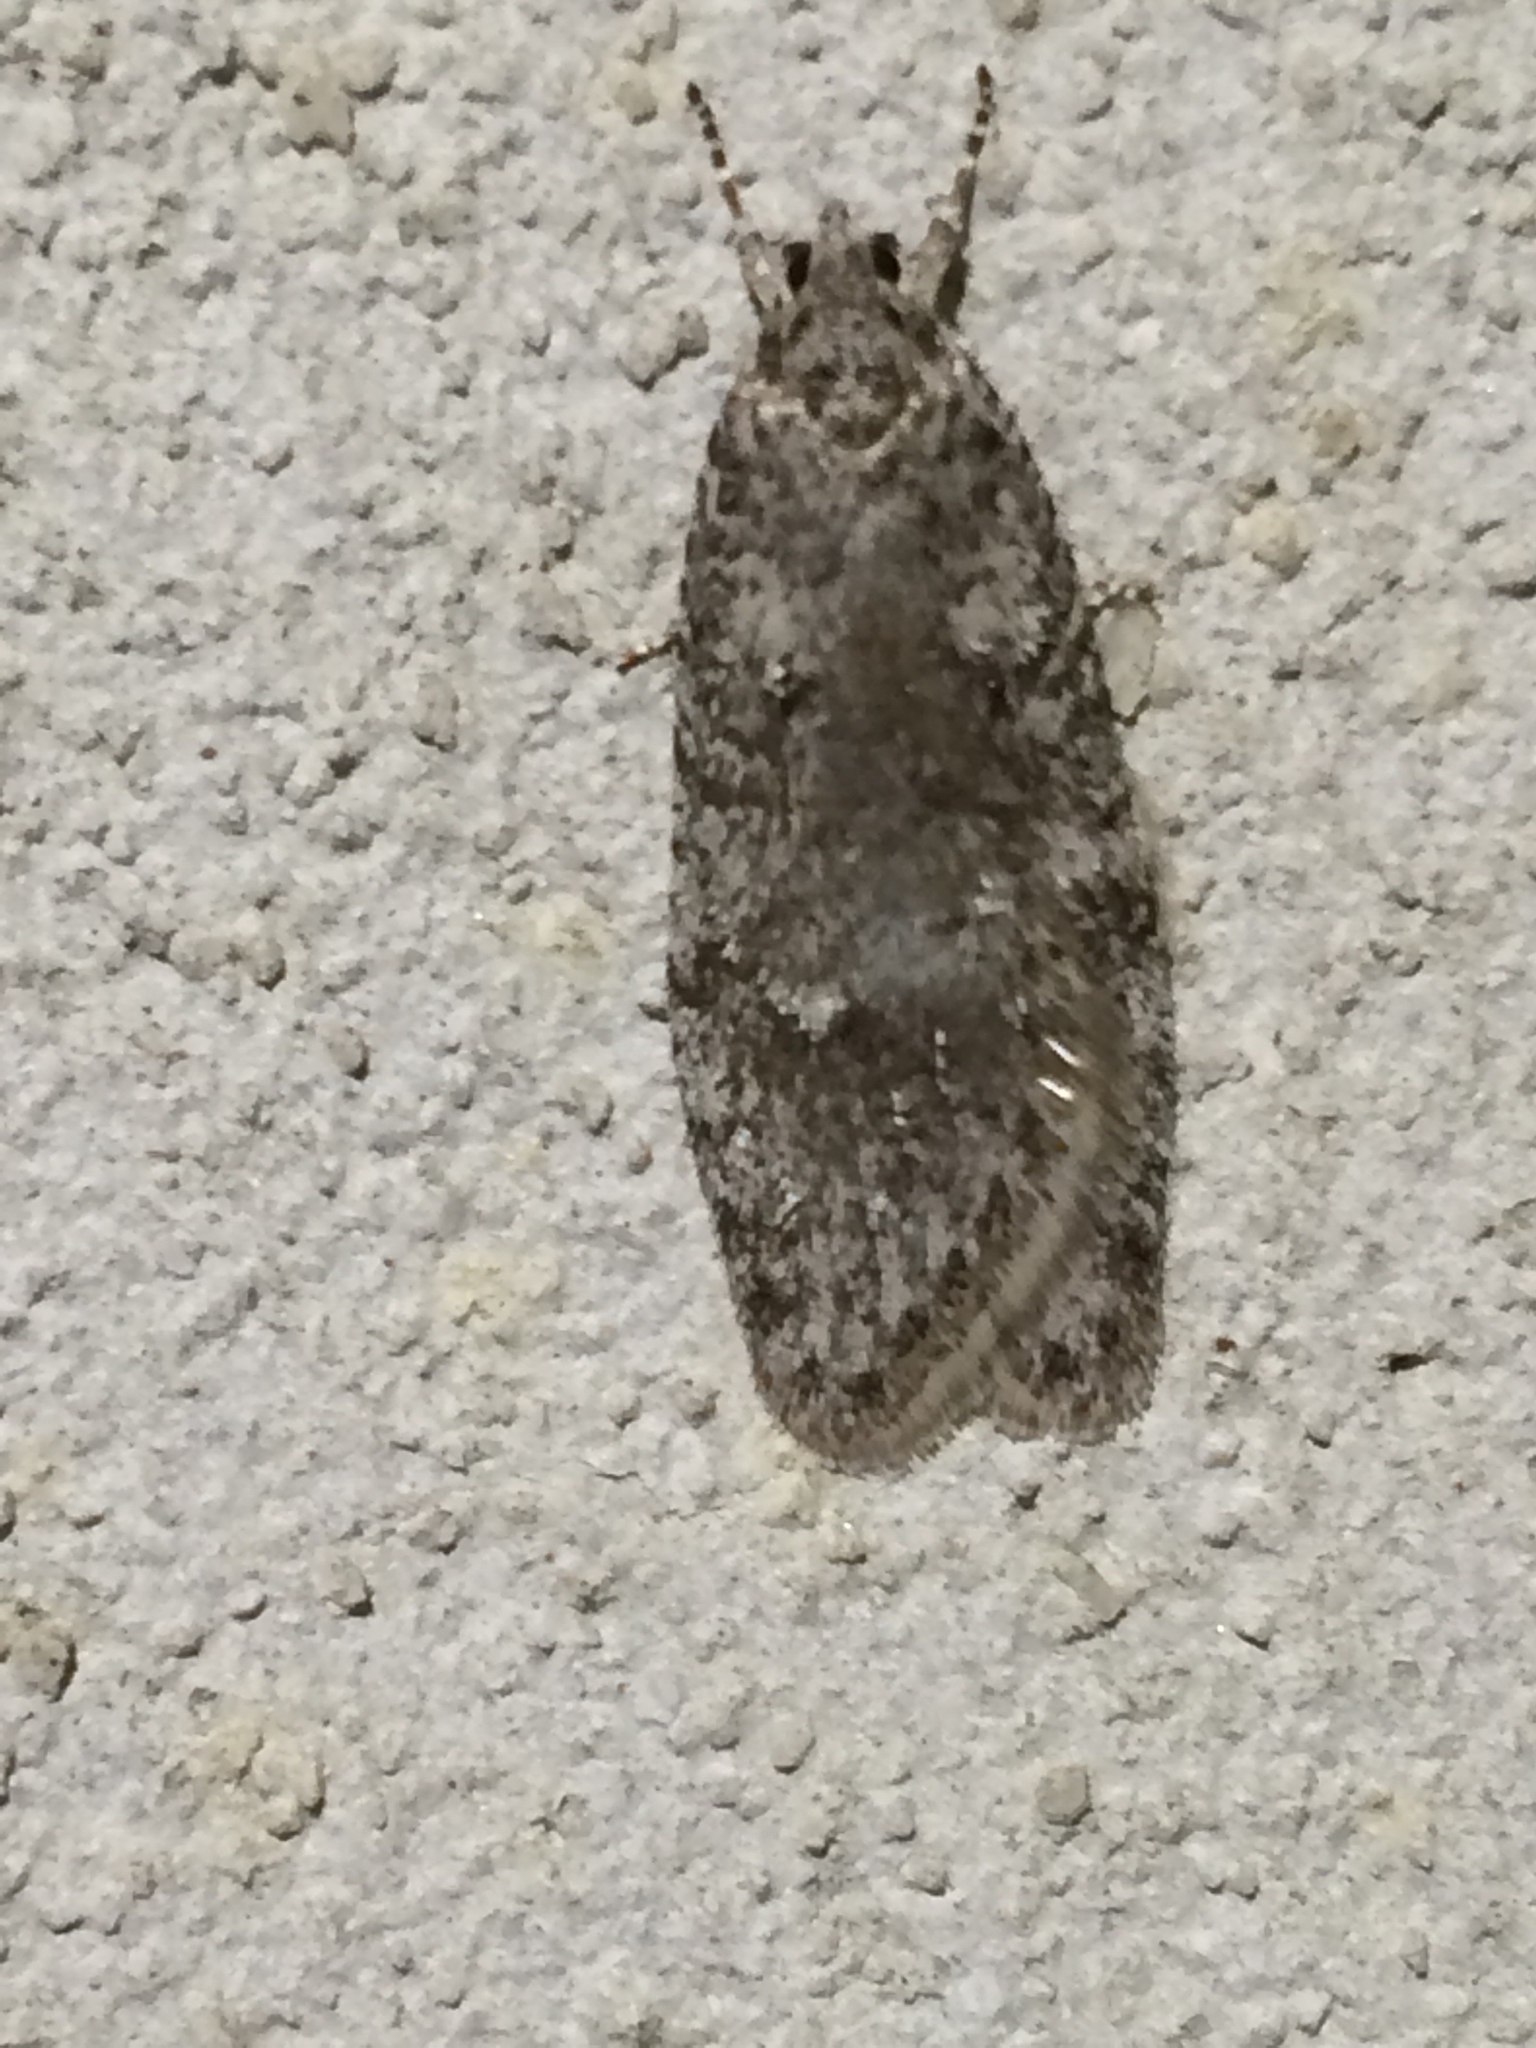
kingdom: Animalia
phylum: Arthropoda
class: Insecta
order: Lepidoptera
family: Depressariidae
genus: Semioscopis
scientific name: Semioscopis inornata
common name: Poplar micromoth
